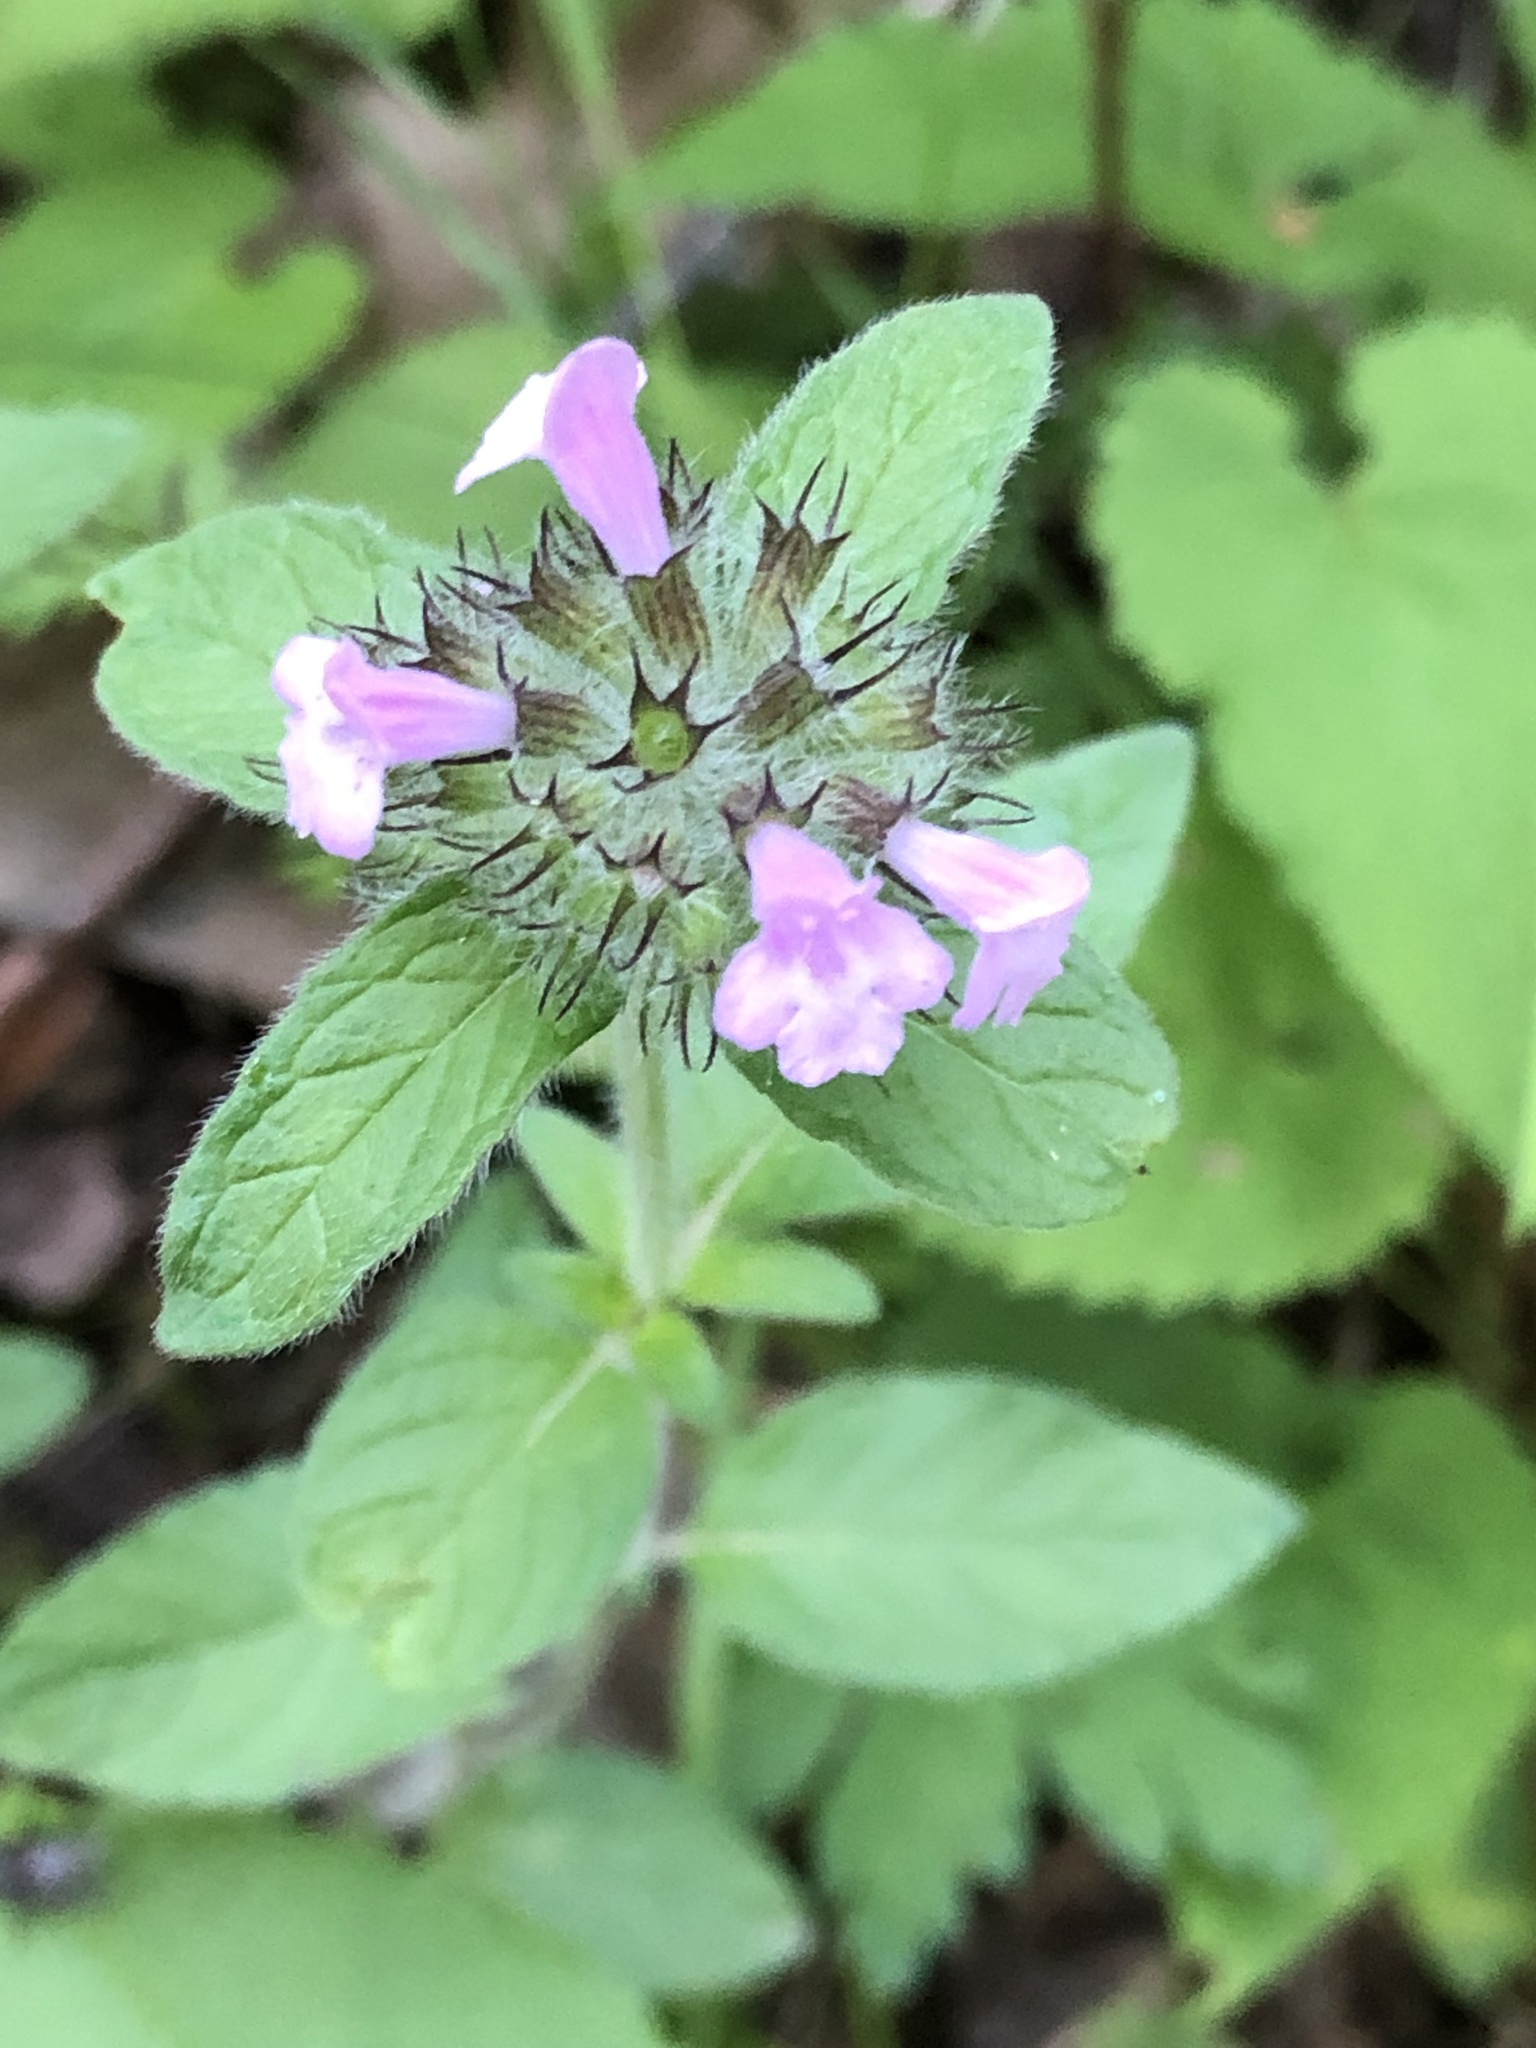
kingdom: Plantae
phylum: Tracheophyta
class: Magnoliopsida
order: Lamiales
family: Lamiaceae
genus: Clinopodium
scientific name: Clinopodium vulgare
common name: Wild basil
